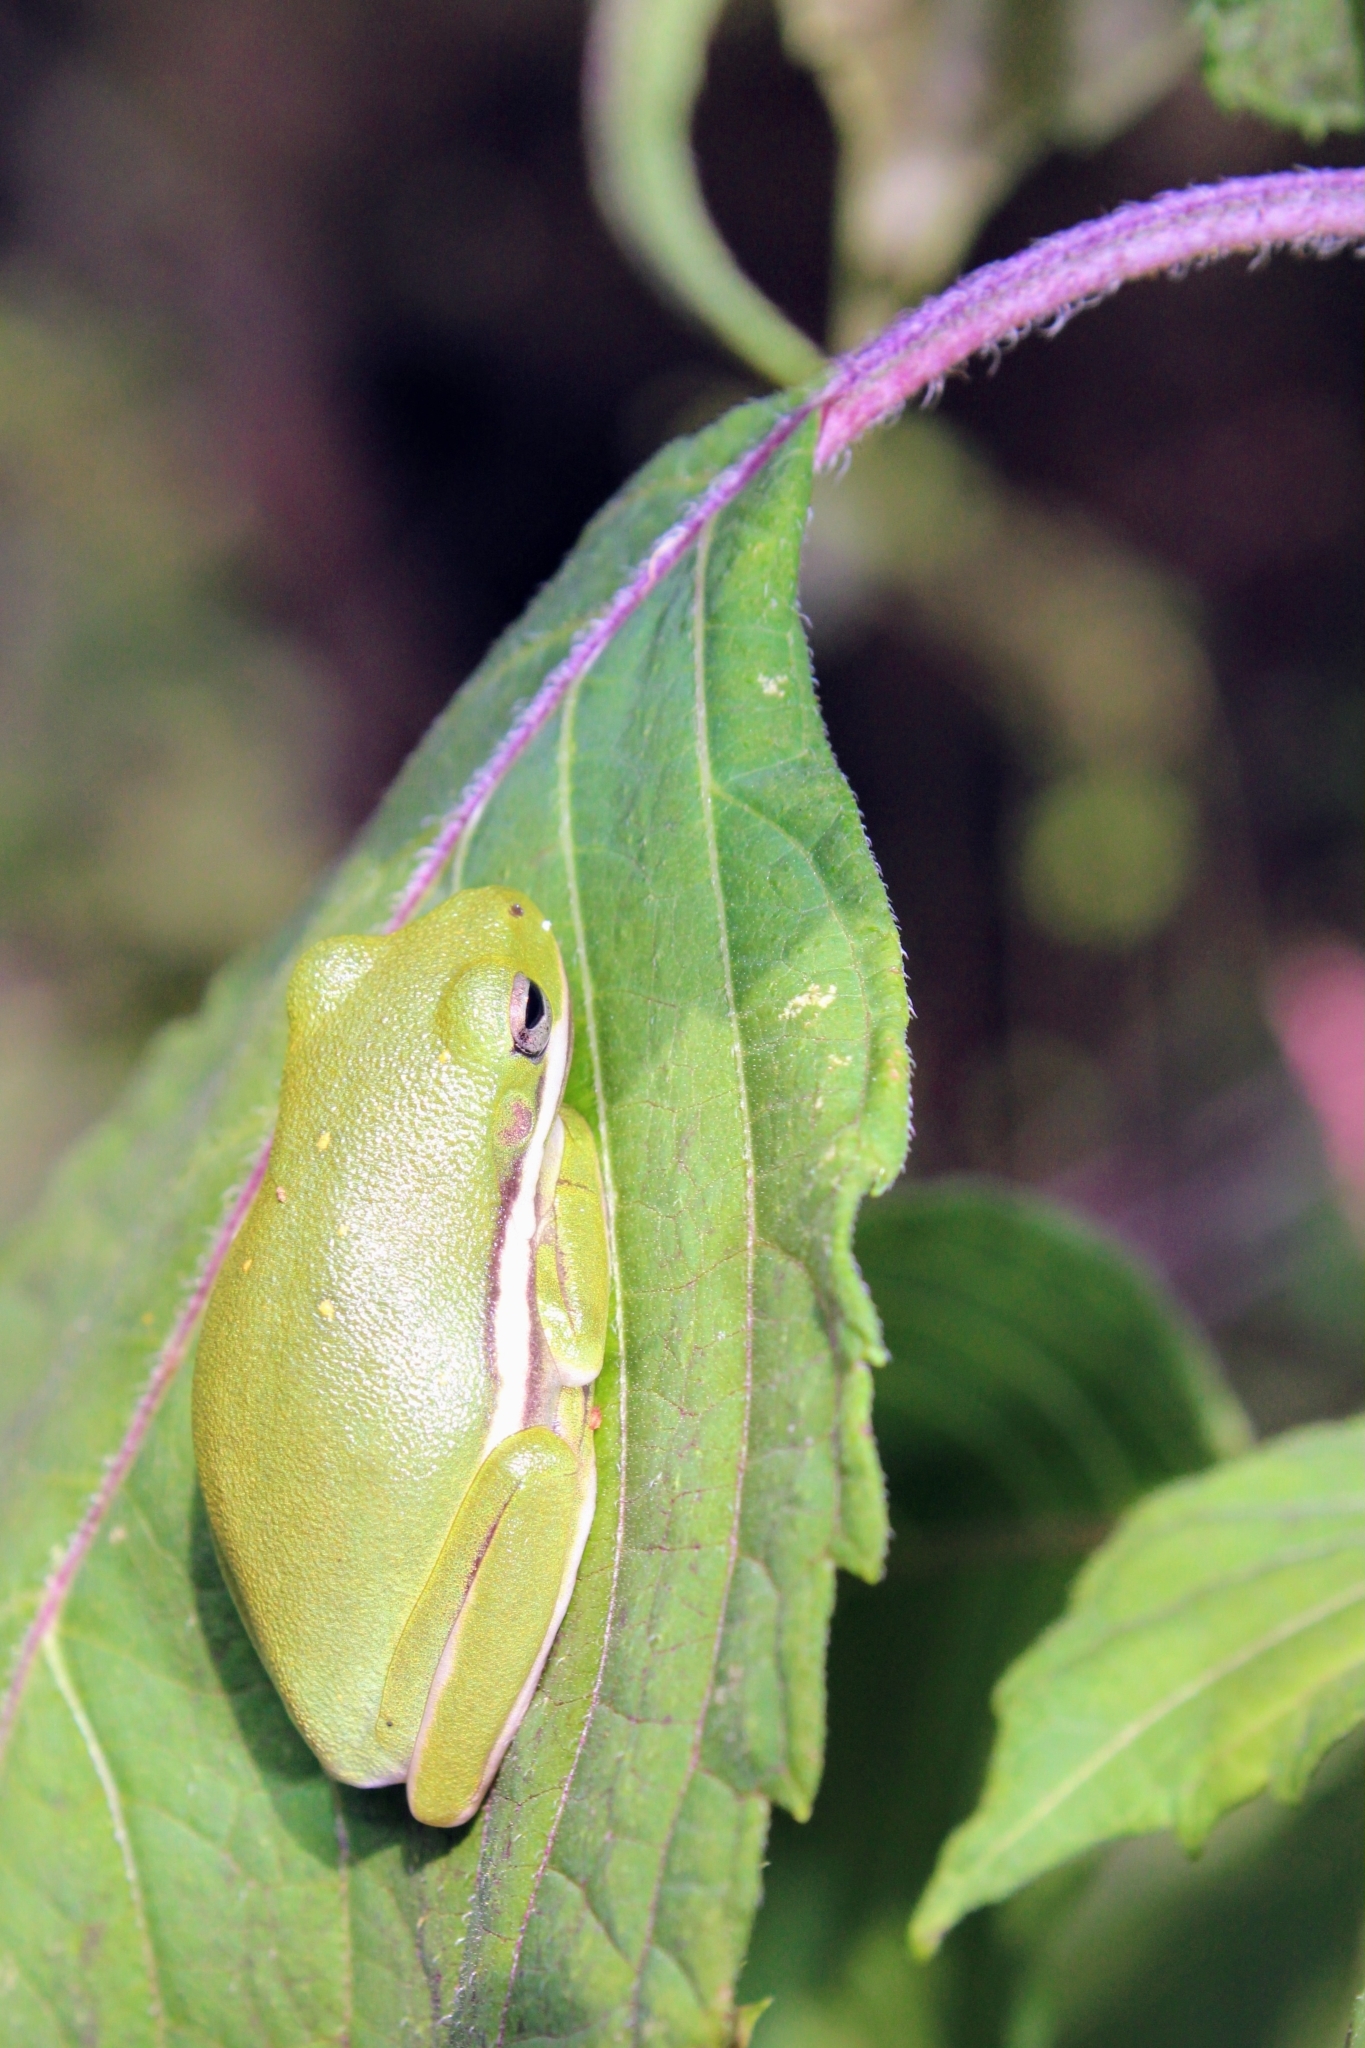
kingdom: Animalia
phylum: Chordata
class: Amphibia
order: Anura
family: Hylidae
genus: Dryophytes
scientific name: Dryophytes cinereus
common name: Green treefrog
